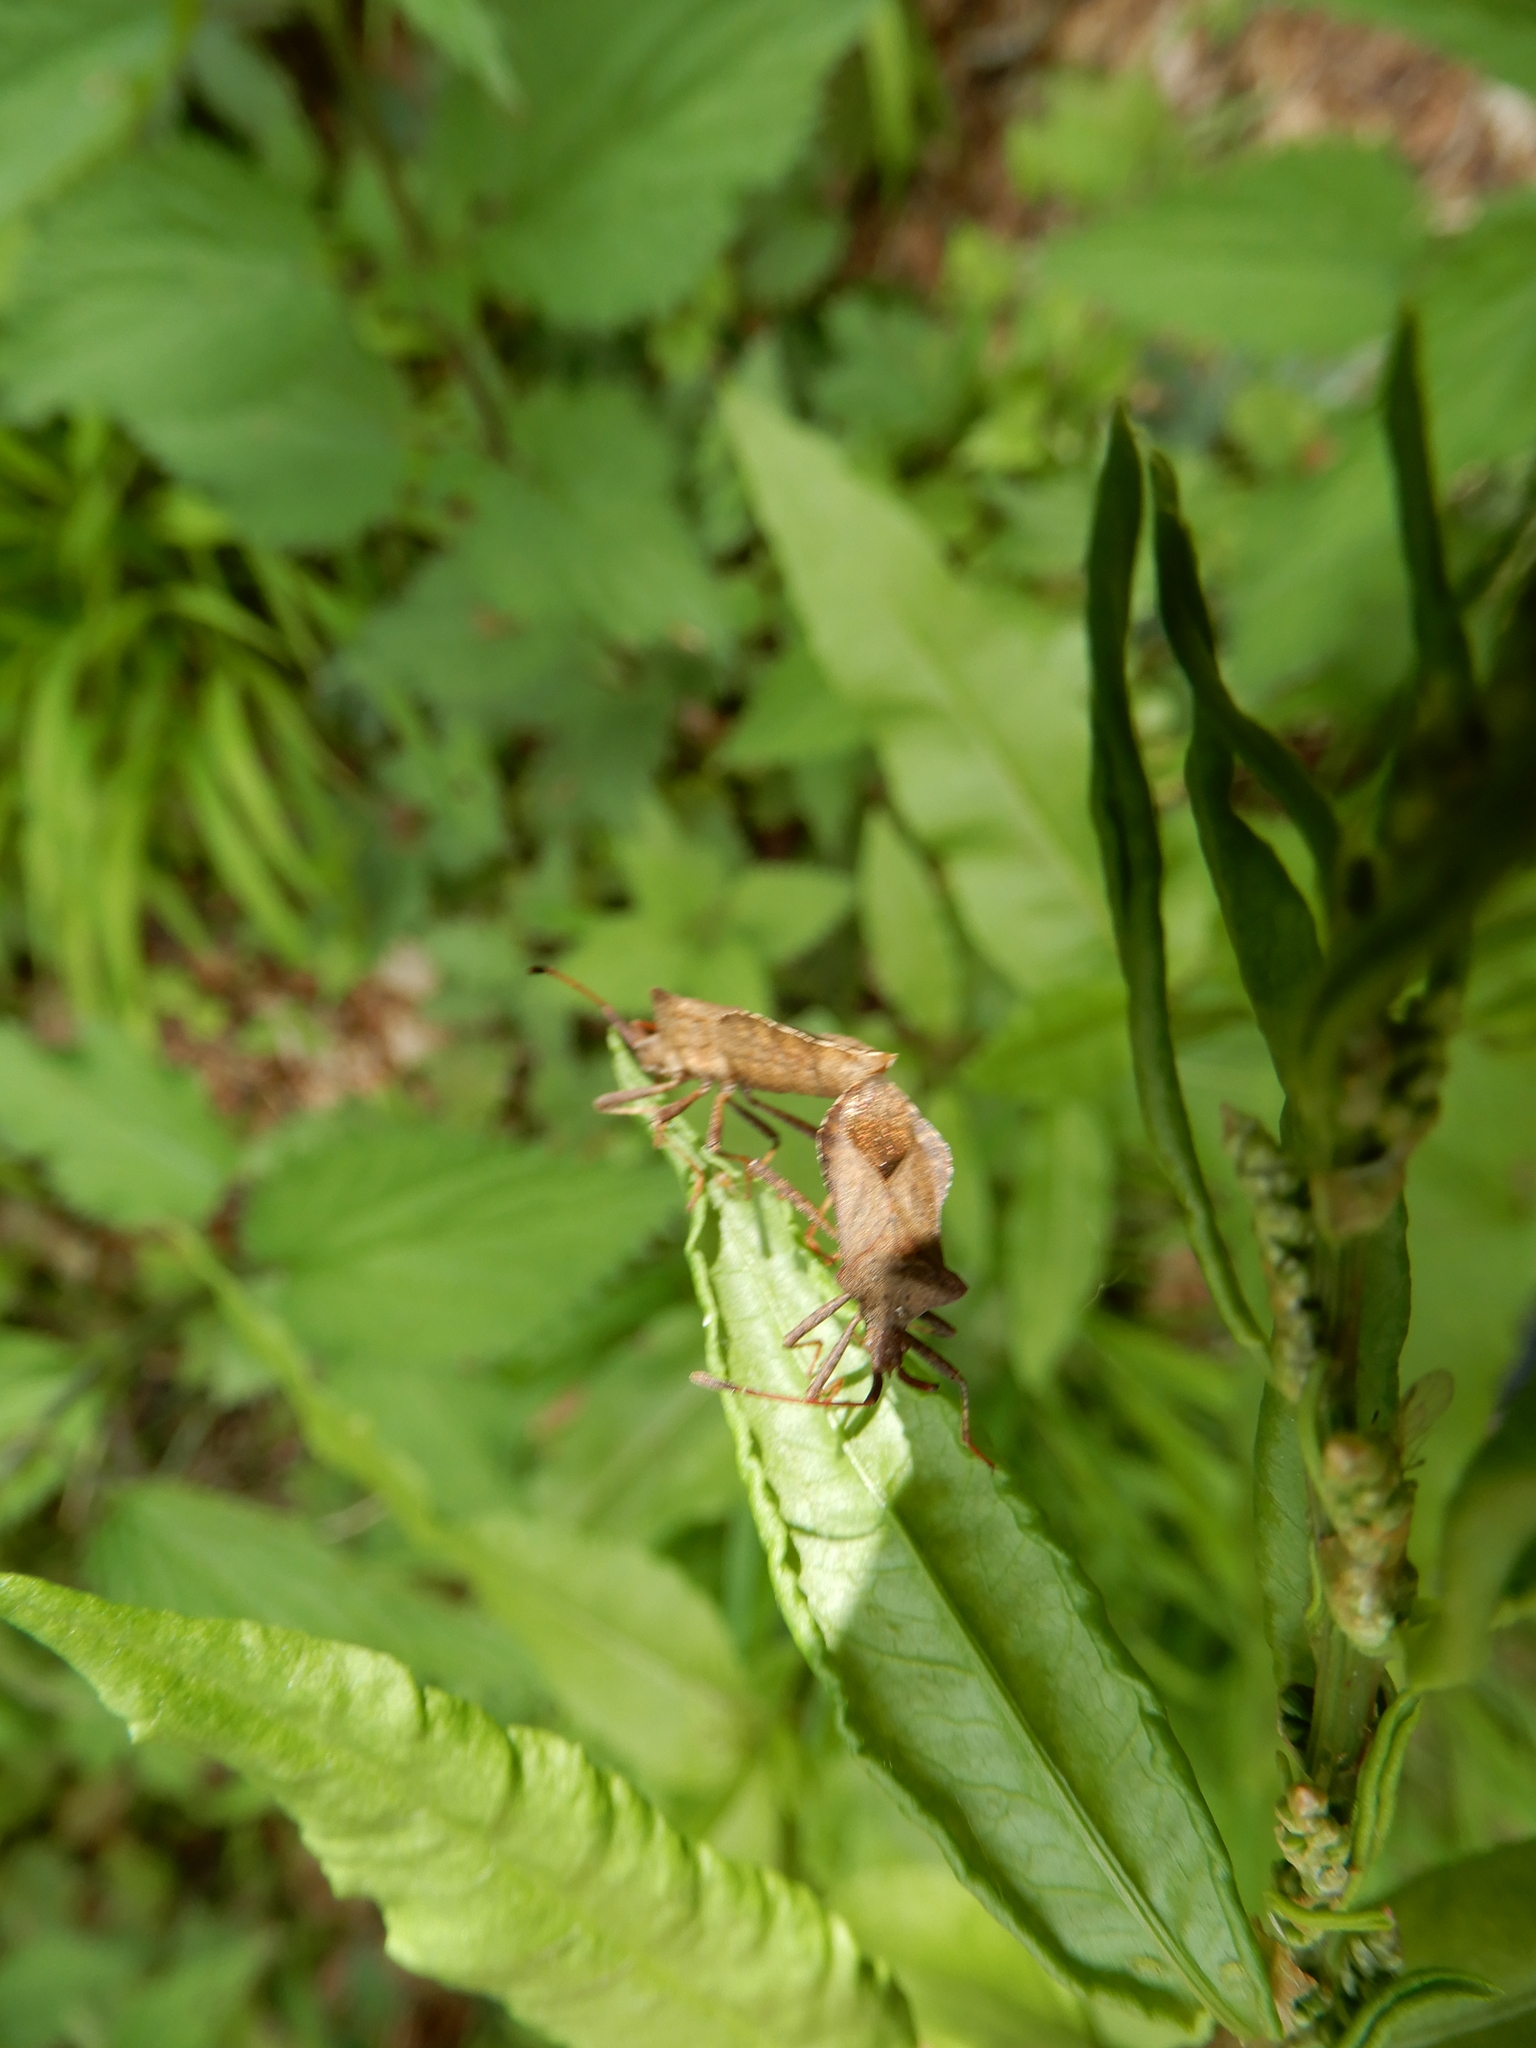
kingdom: Animalia
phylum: Arthropoda
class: Insecta
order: Hemiptera
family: Coreidae
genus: Coreus
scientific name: Coreus marginatus
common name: Dock bug
